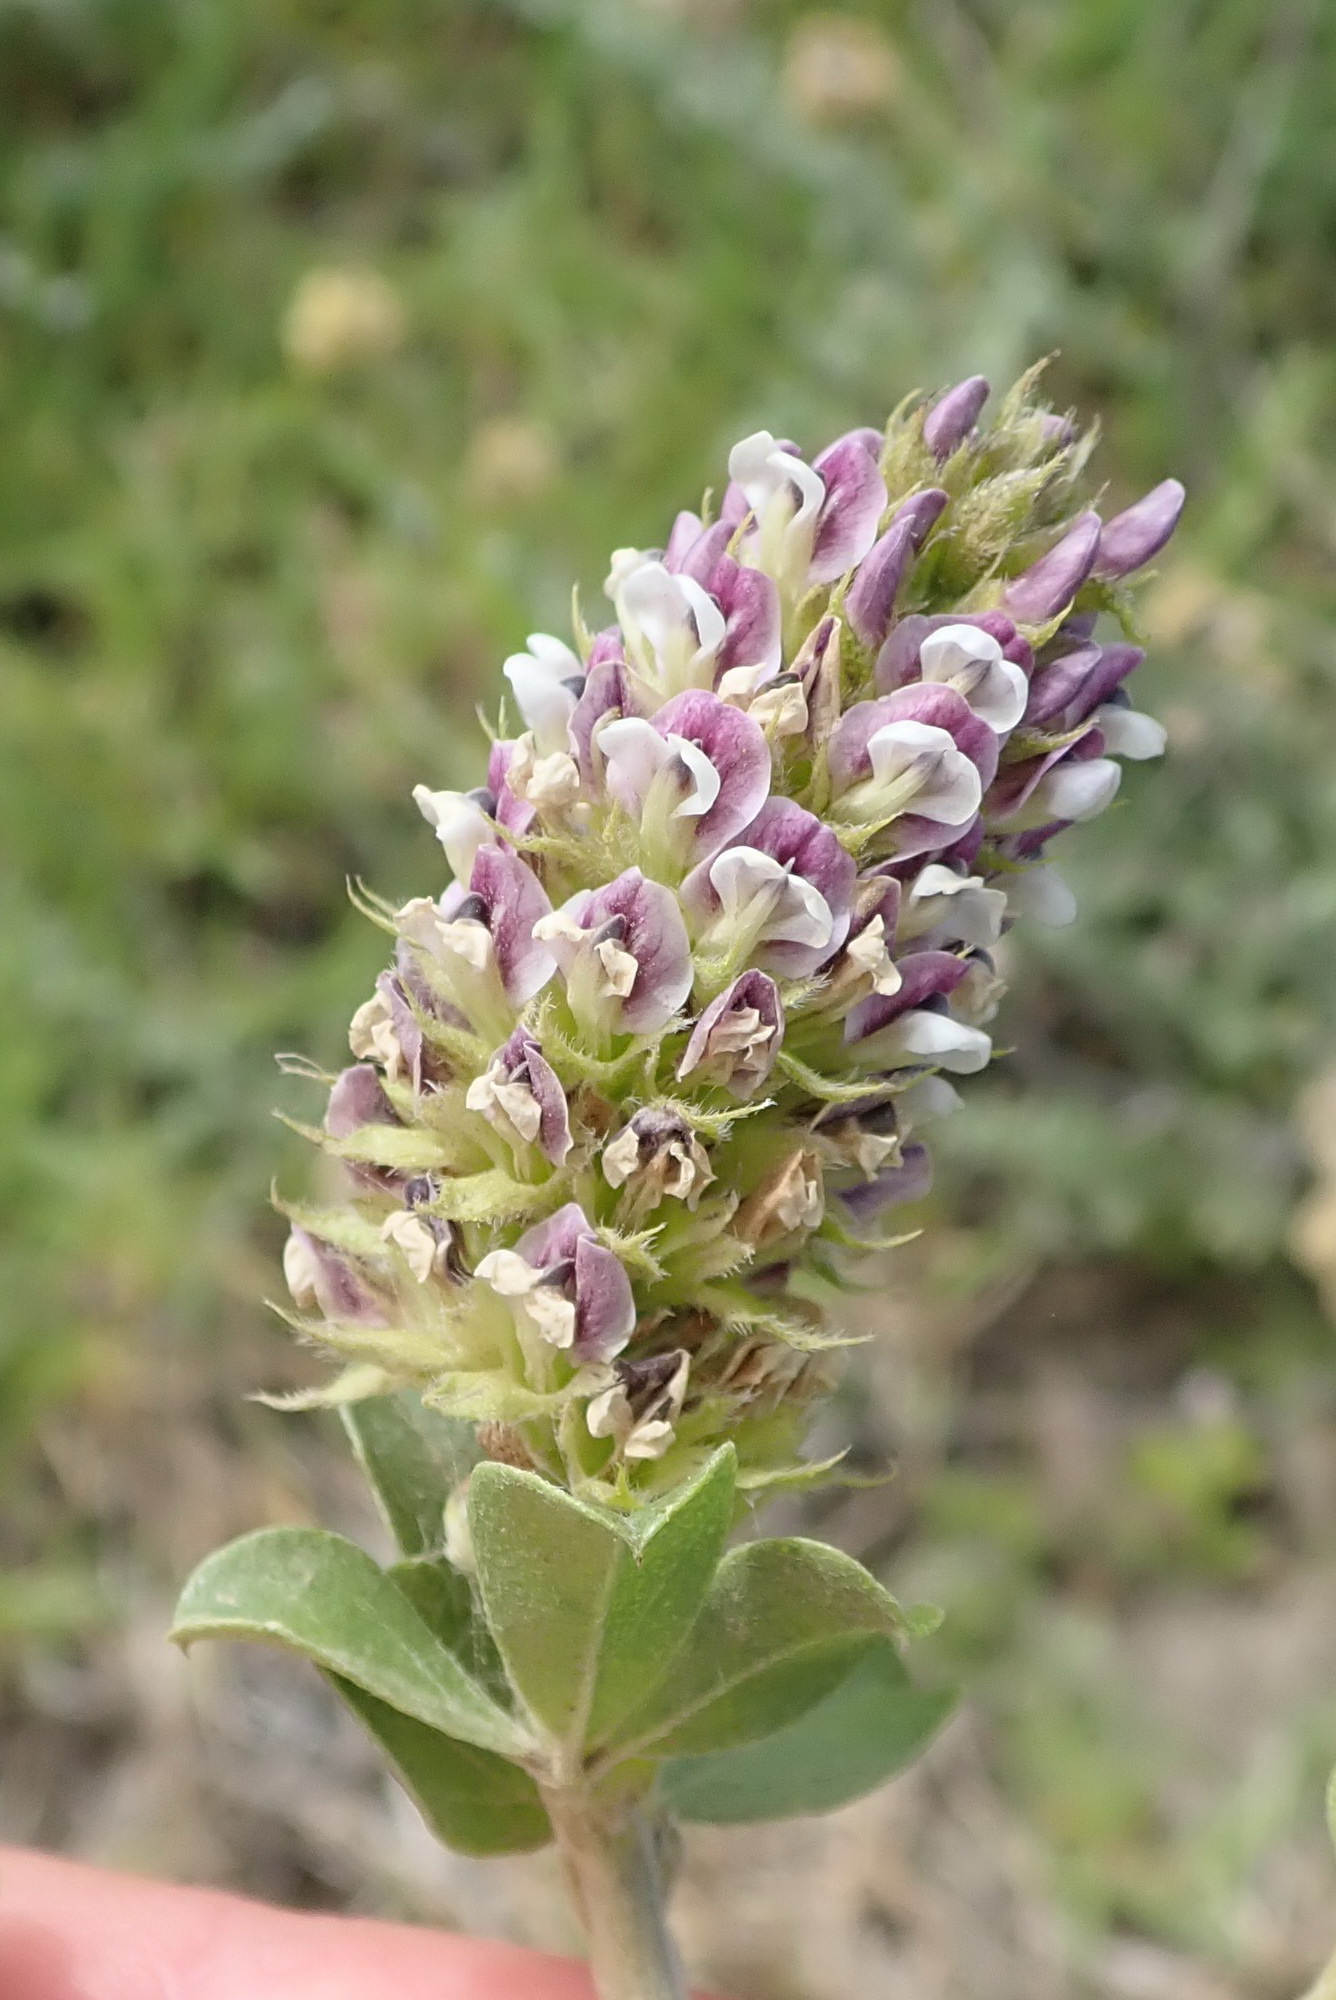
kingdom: Plantae
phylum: Tracheophyta
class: Magnoliopsida
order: Fabales
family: Fabaceae
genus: Psoralea
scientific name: Psoralea stachyera
